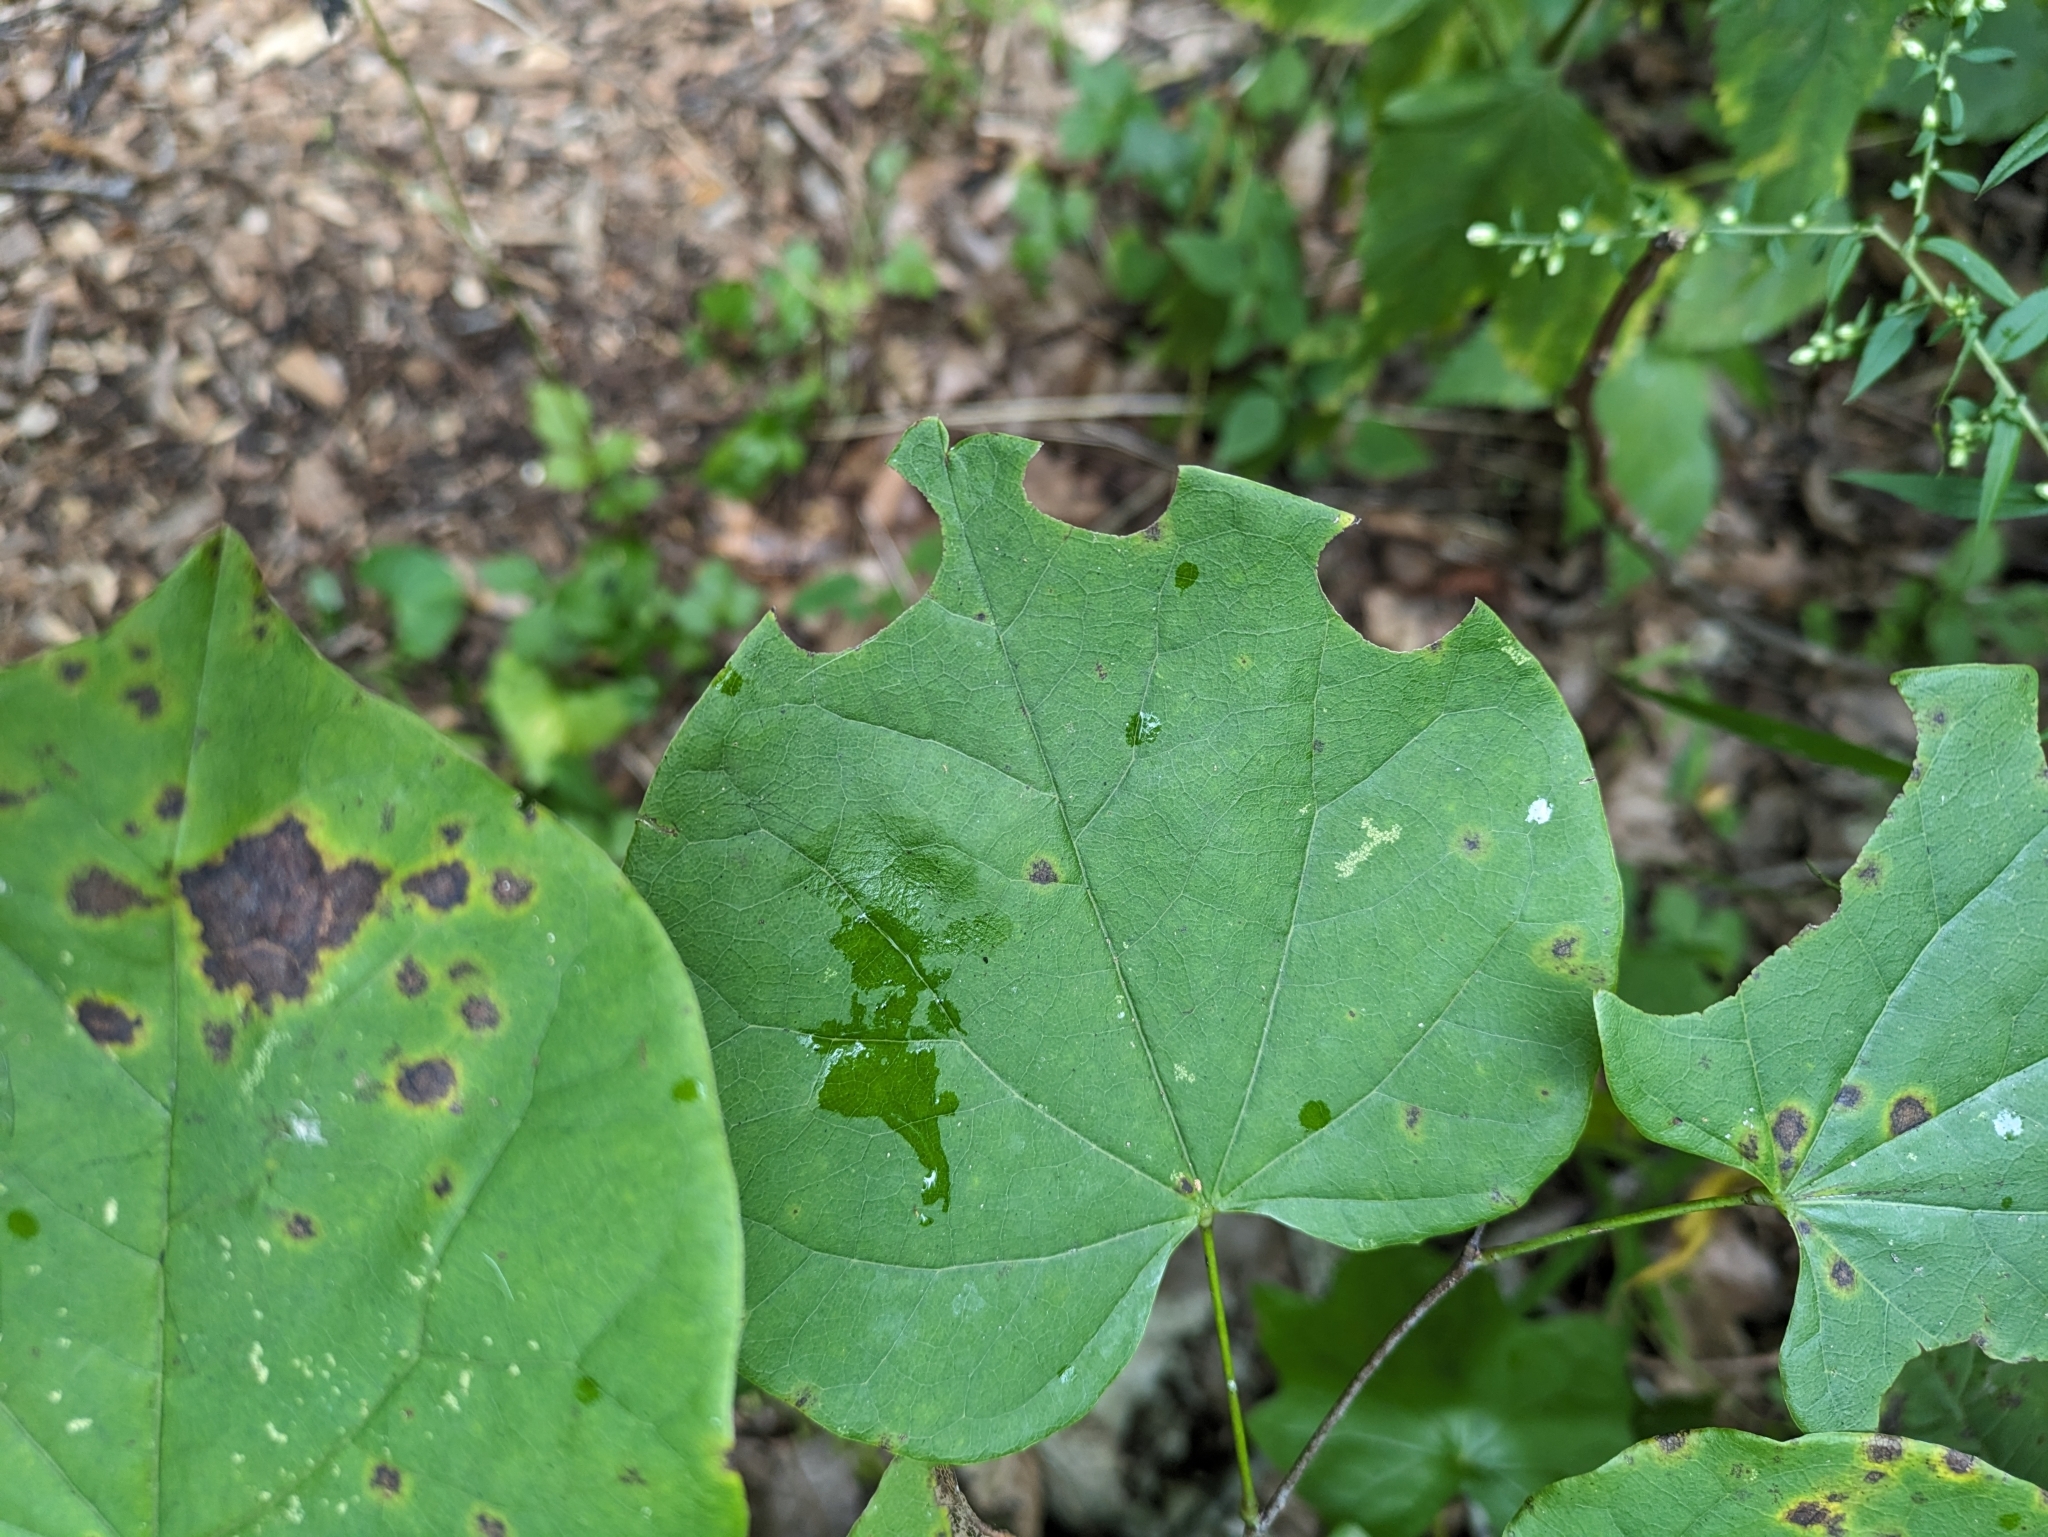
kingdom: Animalia
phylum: Arthropoda
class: Insecta
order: Hymenoptera
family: Megachilidae
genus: Megachile
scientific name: Megachile
